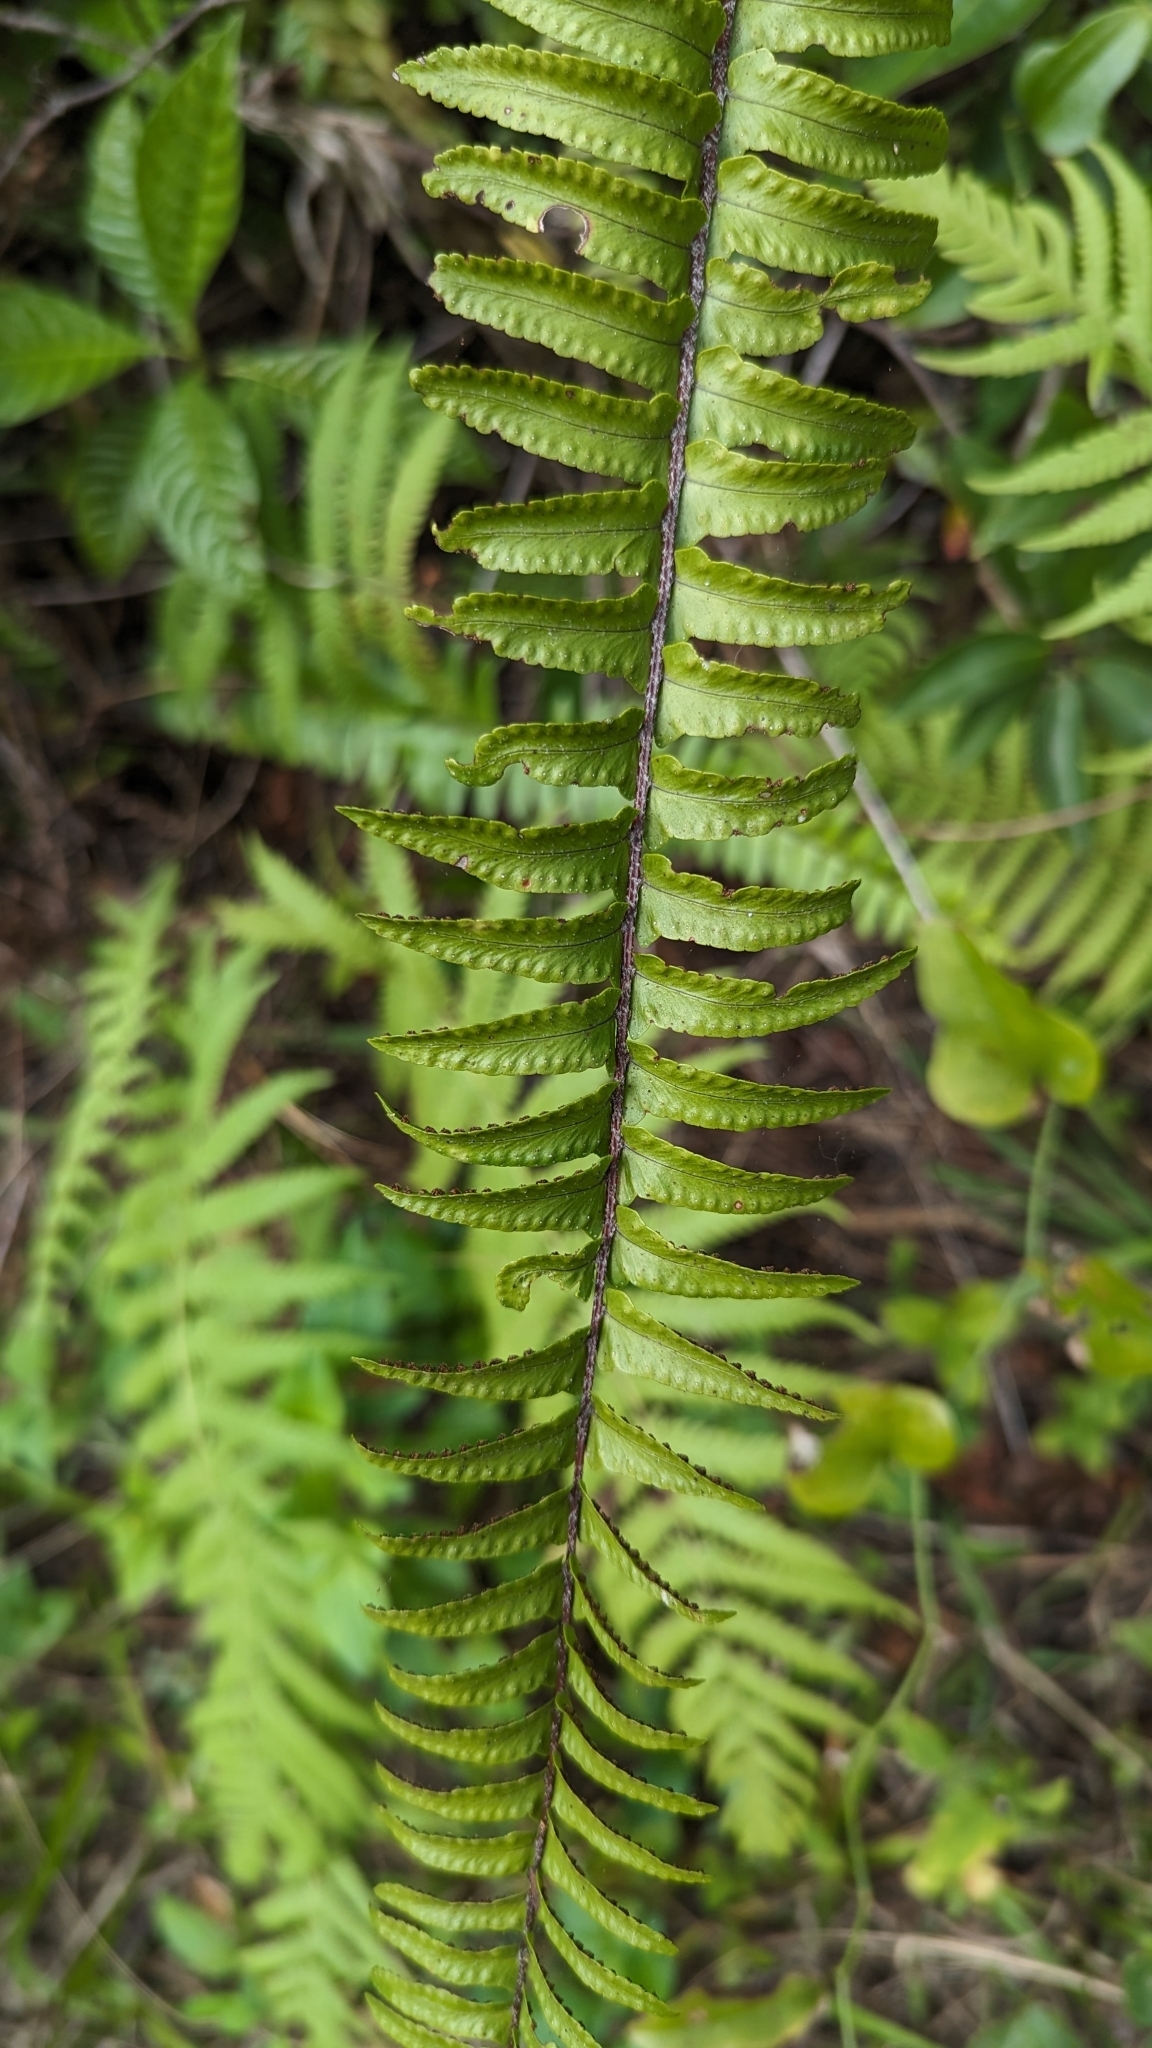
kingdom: Plantae
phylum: Tracheophyta
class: Polypodiopsida
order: Polypodiales
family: Nephrolepidaceae
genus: Nephrolepis
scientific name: Nephrolepis cordifolia
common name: Narrow swordfern
